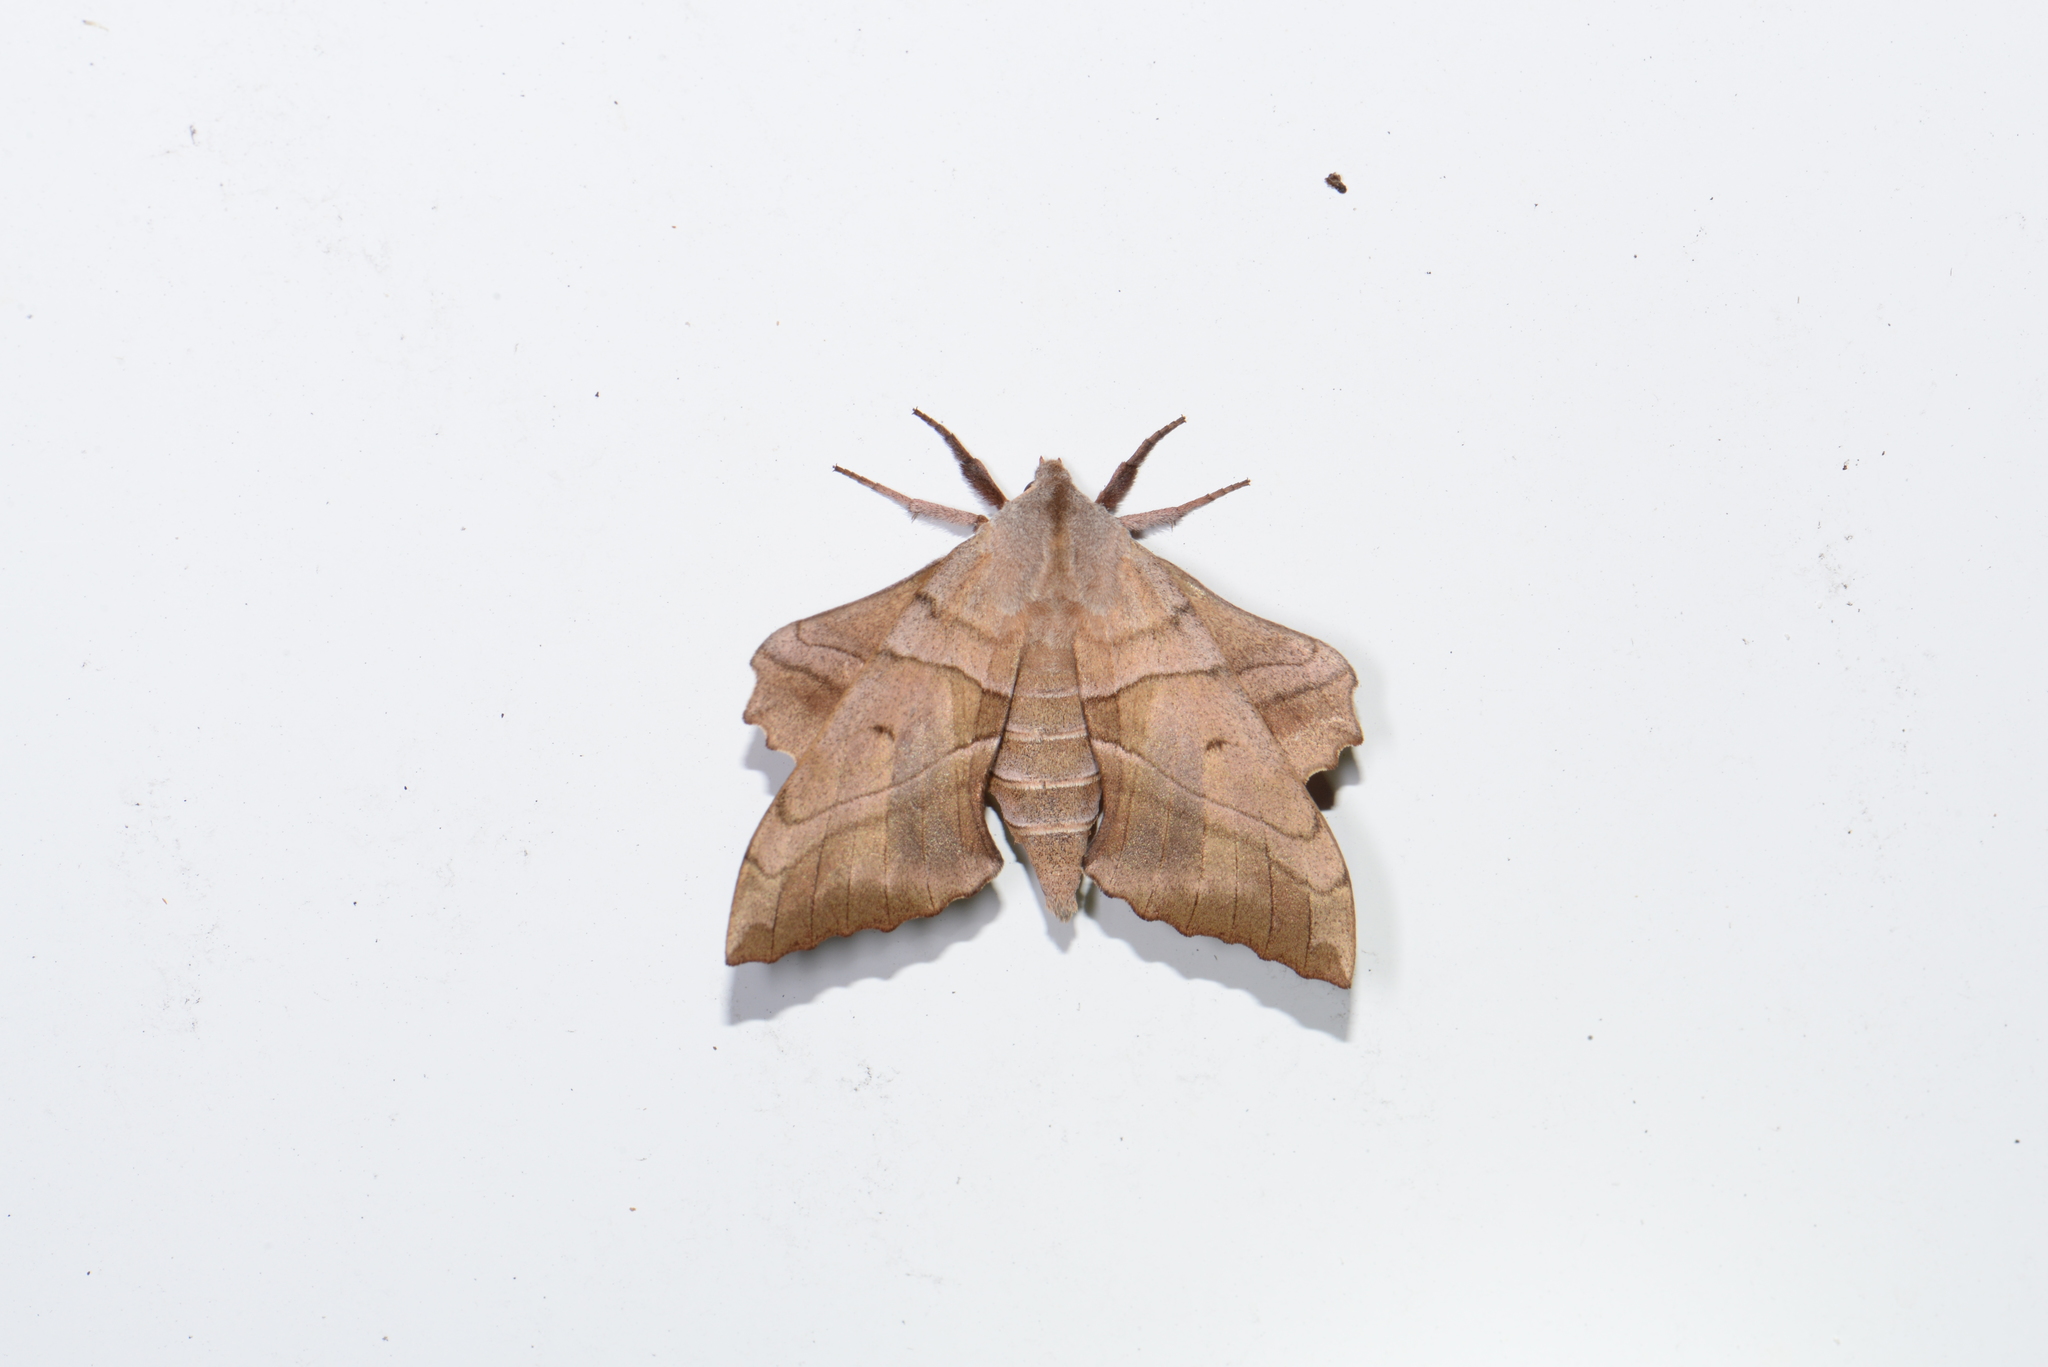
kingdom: Animalia
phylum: Arthropoda
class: Insecta
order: Lepidoptera
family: Sphingidae
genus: Amorpha
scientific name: Amorpha juglandis
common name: Walnut sphinx
